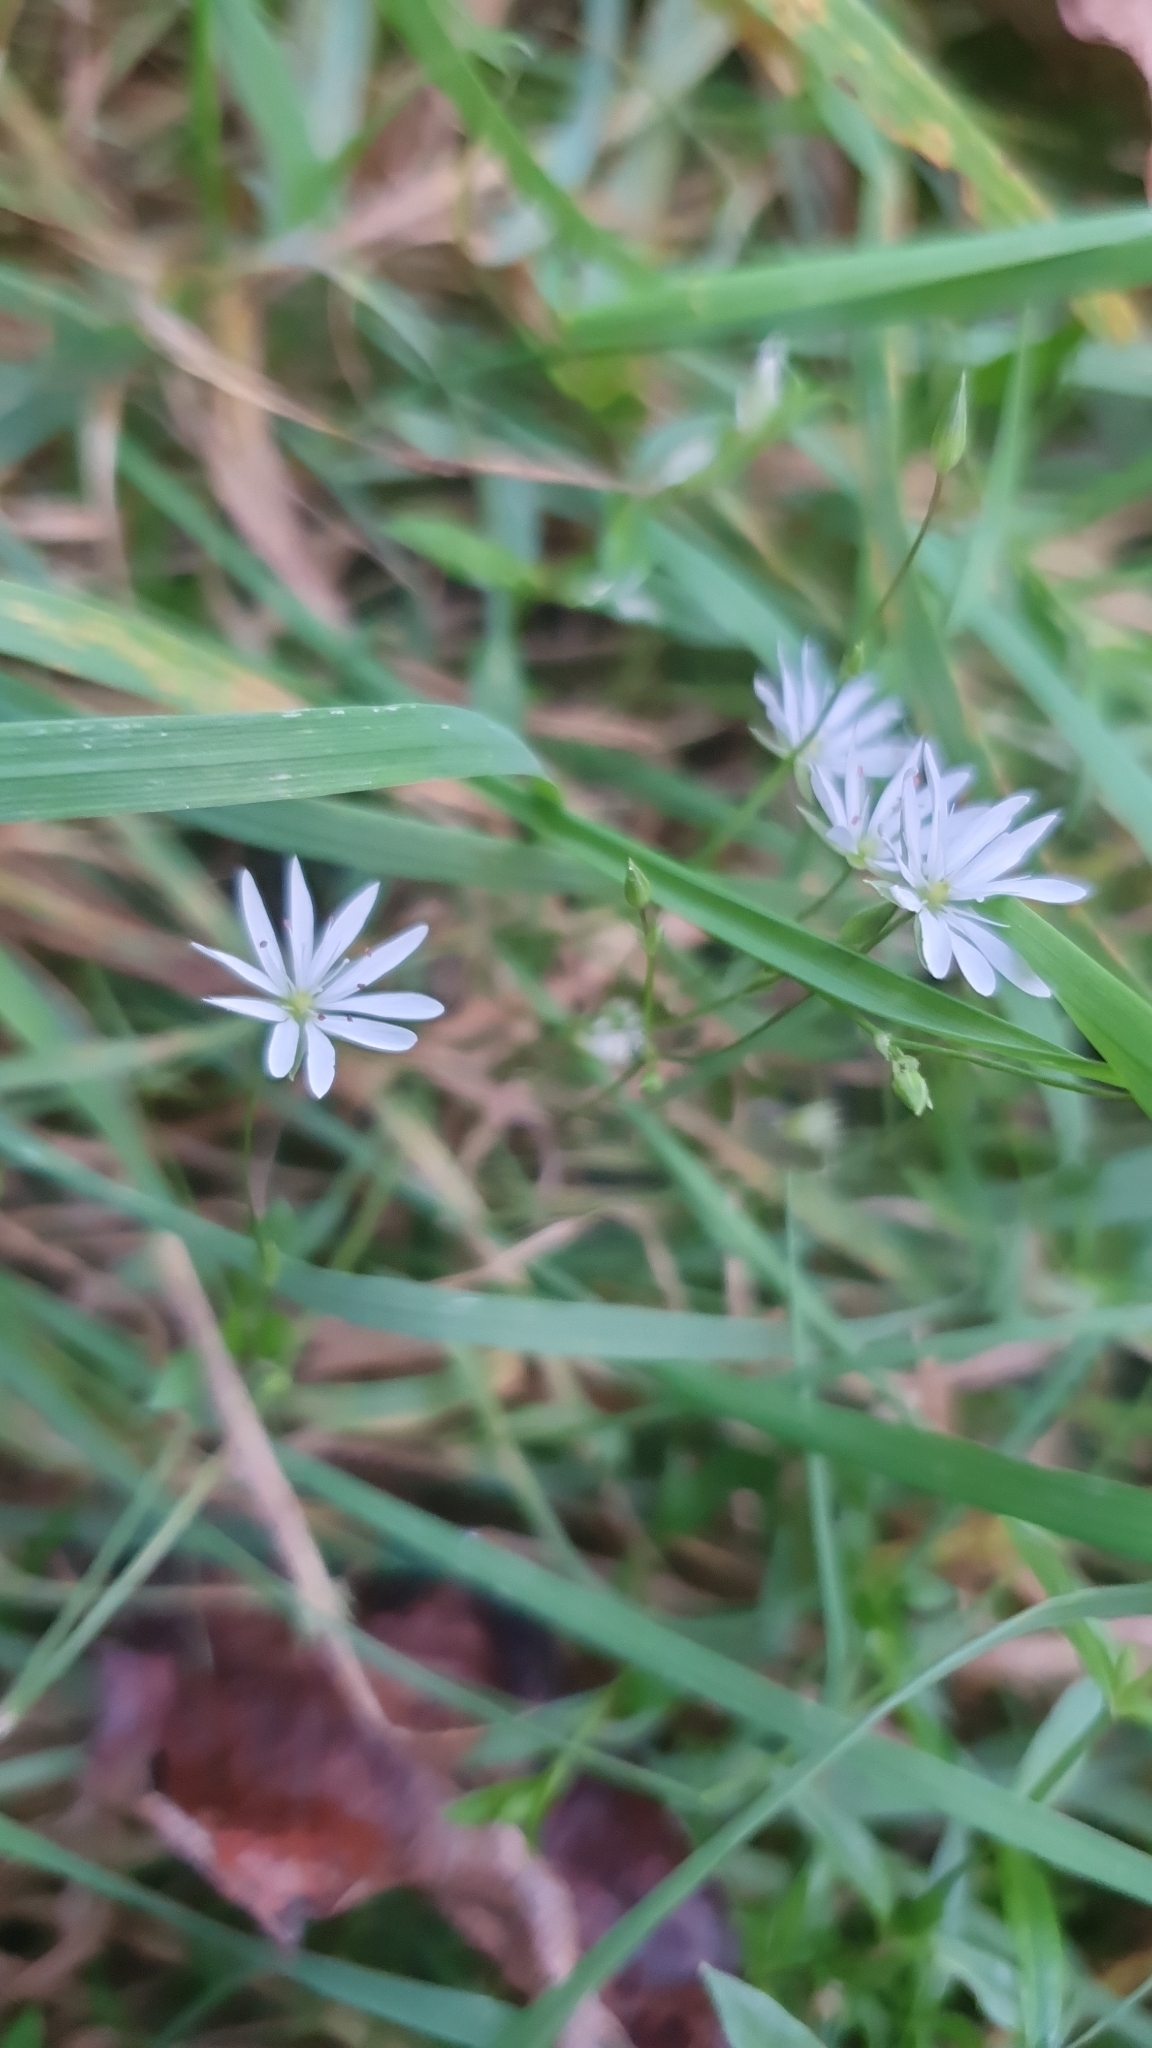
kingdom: Plantae
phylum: Tracheophyta
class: Magnoliopsida
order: Caryophyllales
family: Caryophyllaceae
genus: Stellaria
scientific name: Stellaria graminea
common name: Grass-like starwort
